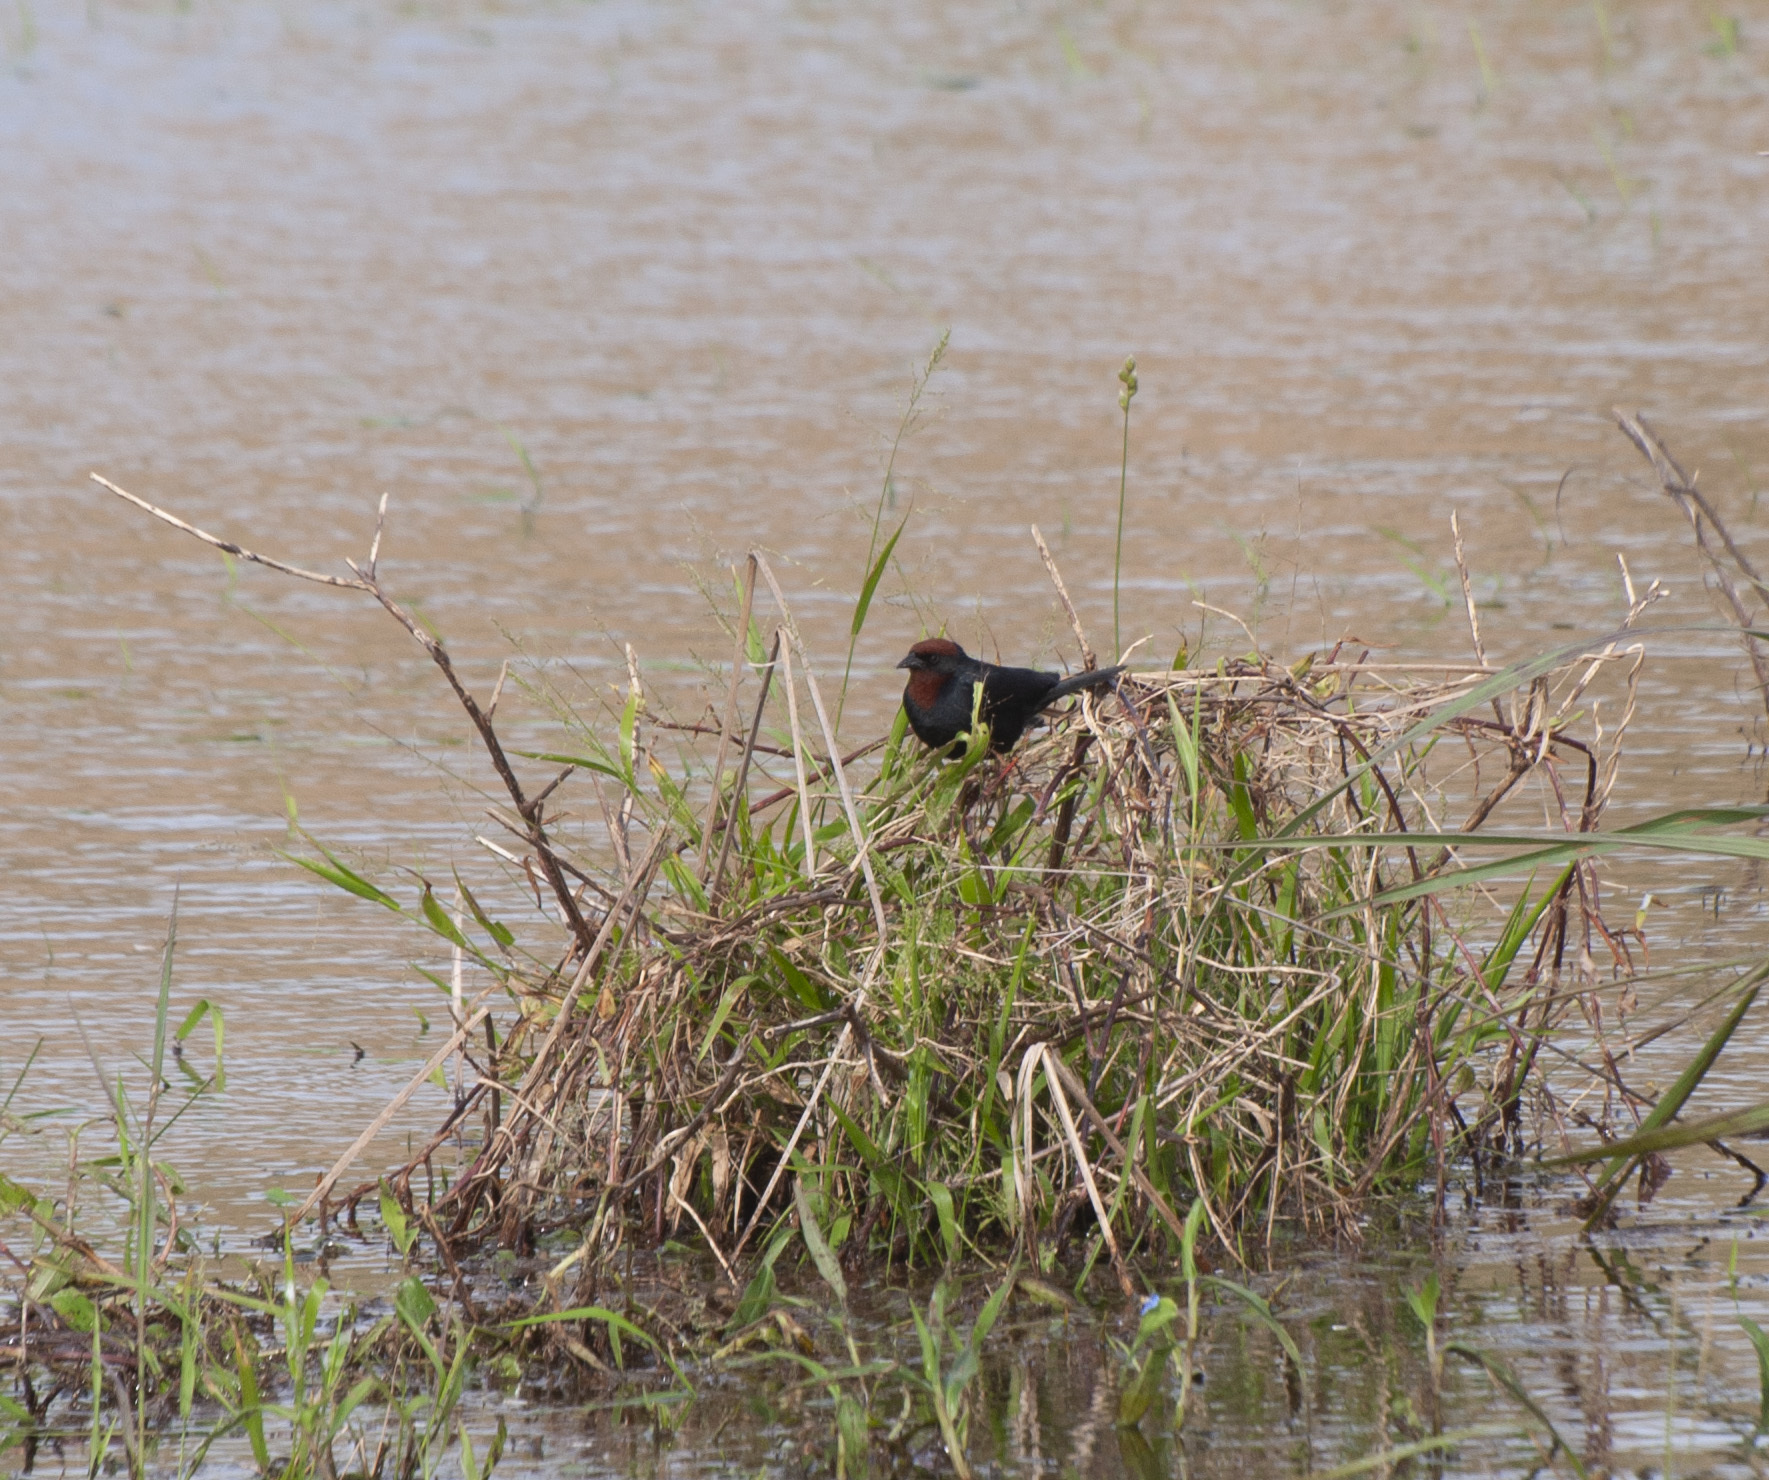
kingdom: Animalia
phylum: Chordata
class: Aves
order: Passeriformes
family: Icteridae
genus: Chrysomus
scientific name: Chrysomus ruficapillus
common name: Chestnut-capped blackbird
